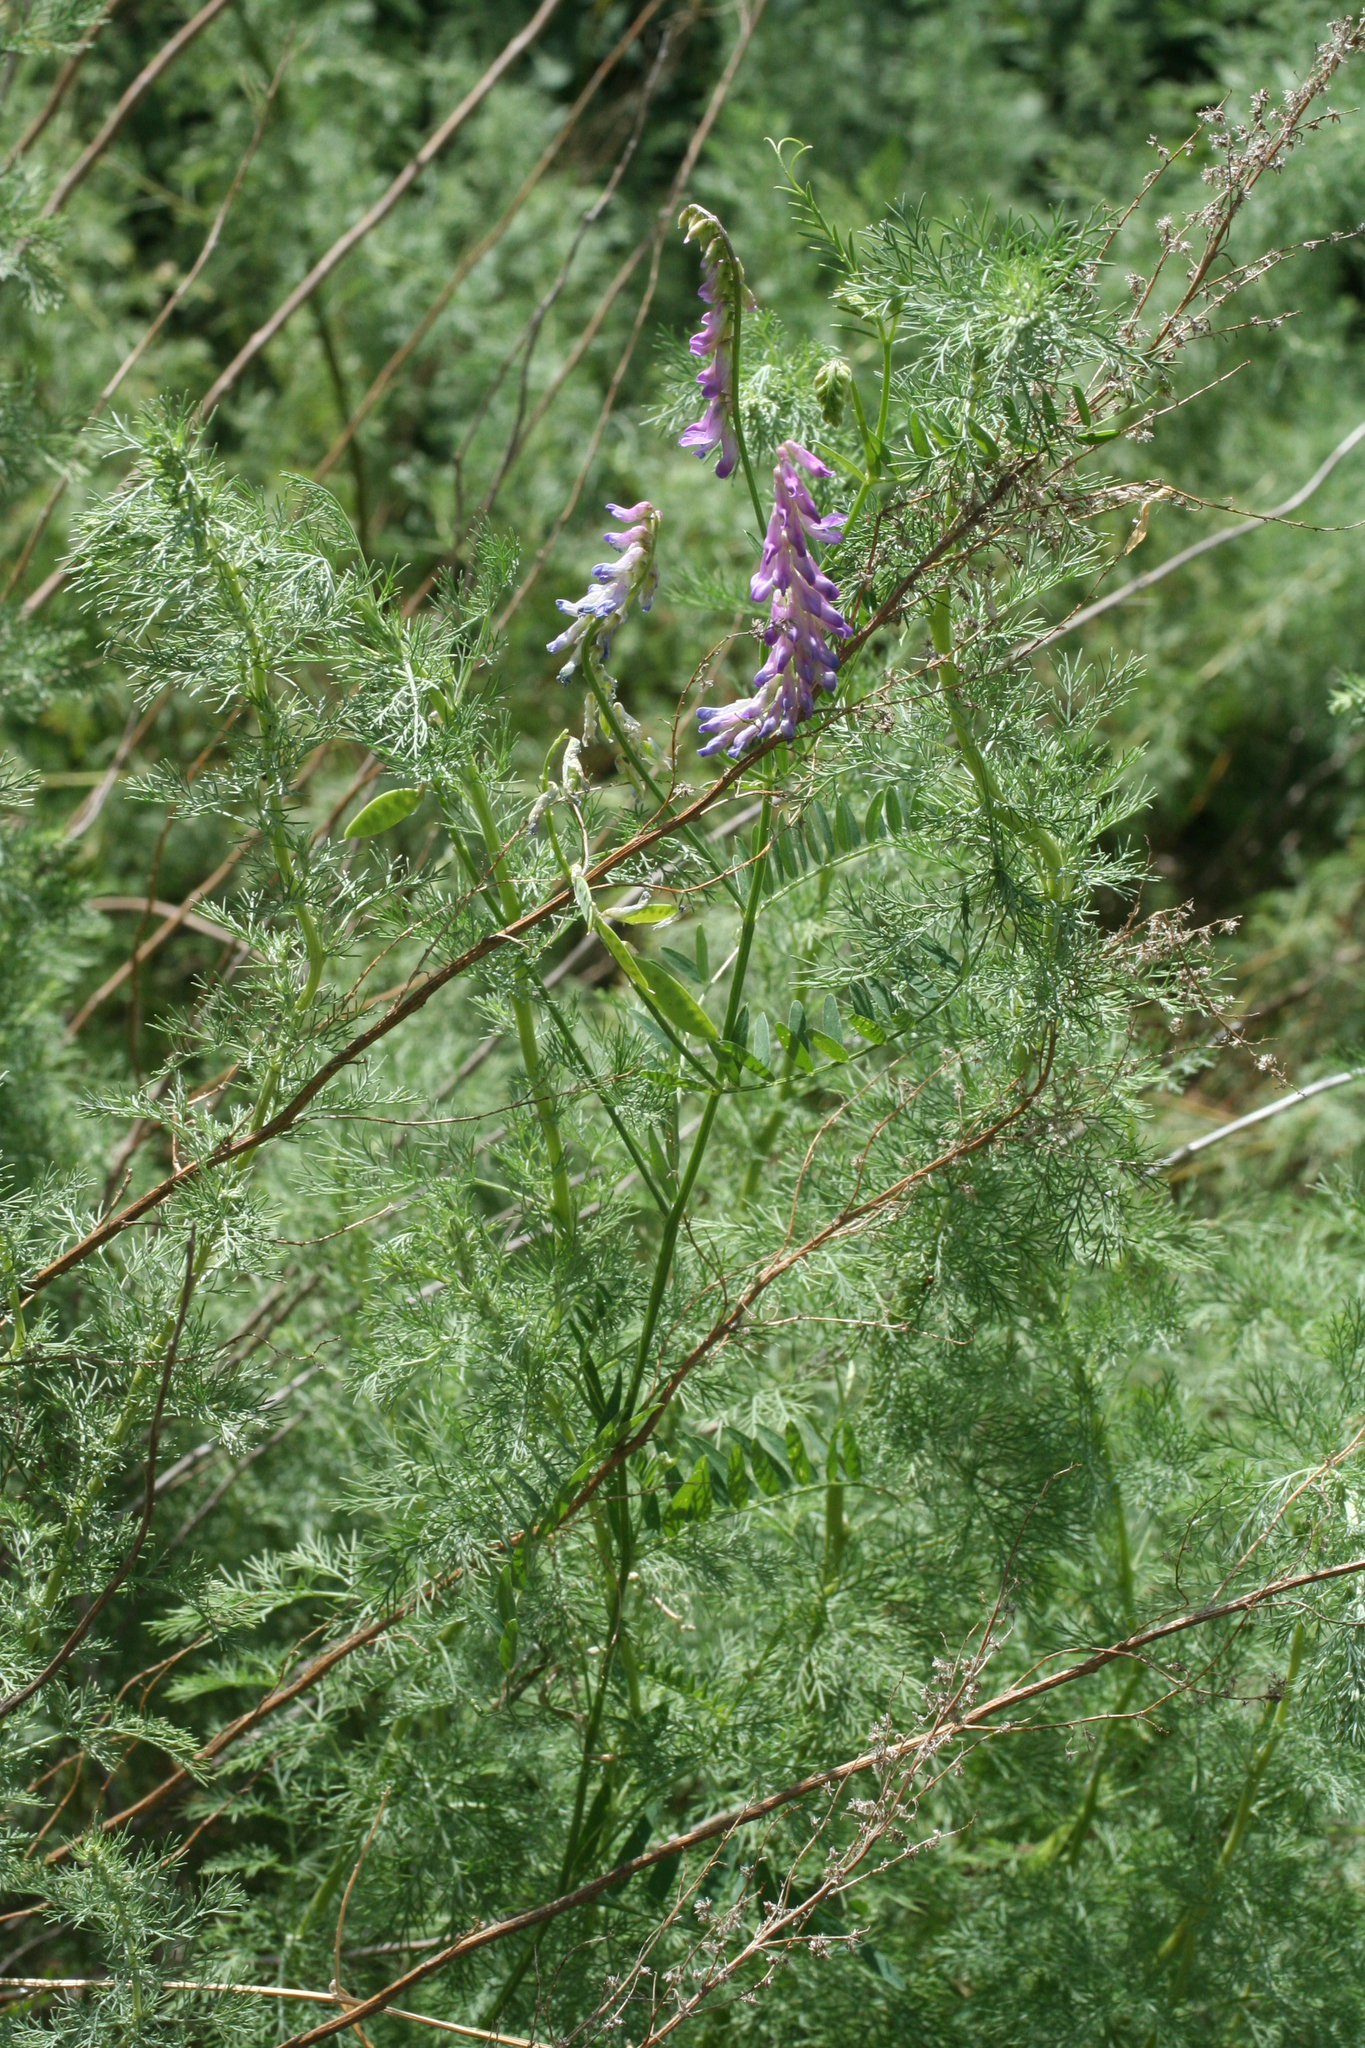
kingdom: Plantae
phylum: Tracheophyta
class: Magnoliopsida
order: Fabales
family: Fabaceae
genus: Vicia
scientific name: Vicia cracca
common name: Bird vetch
